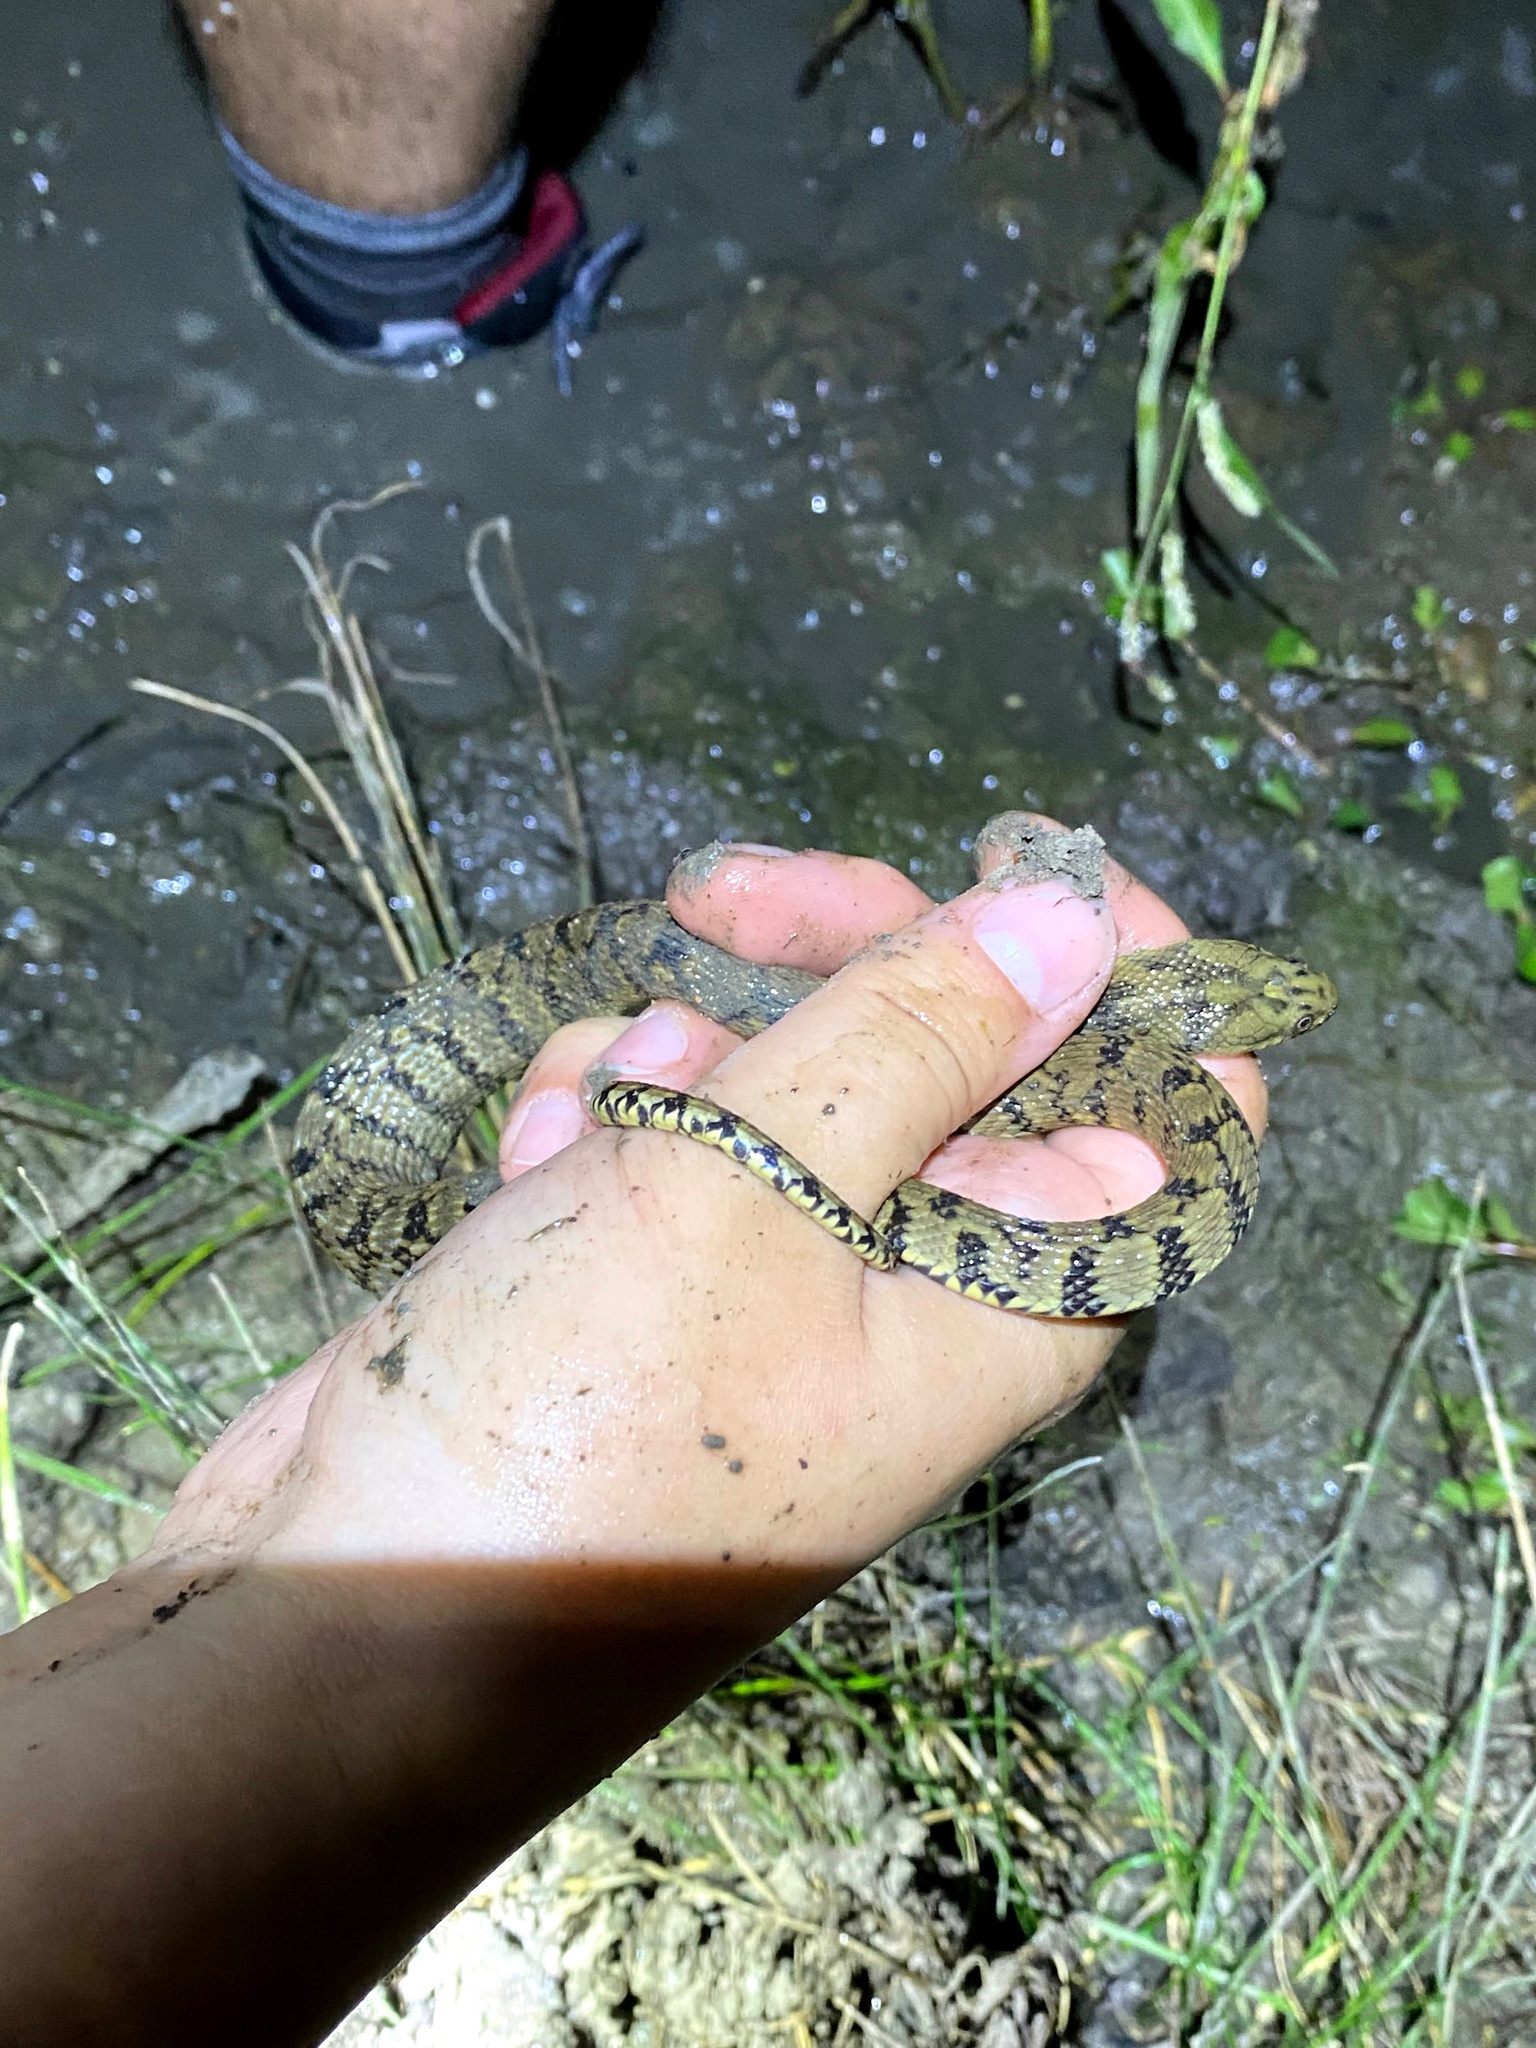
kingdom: Animalia
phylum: Chordata
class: Squamata
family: Colubridae
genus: Nerodia
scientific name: Nerodia rhombifer
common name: Diamondback water snake
